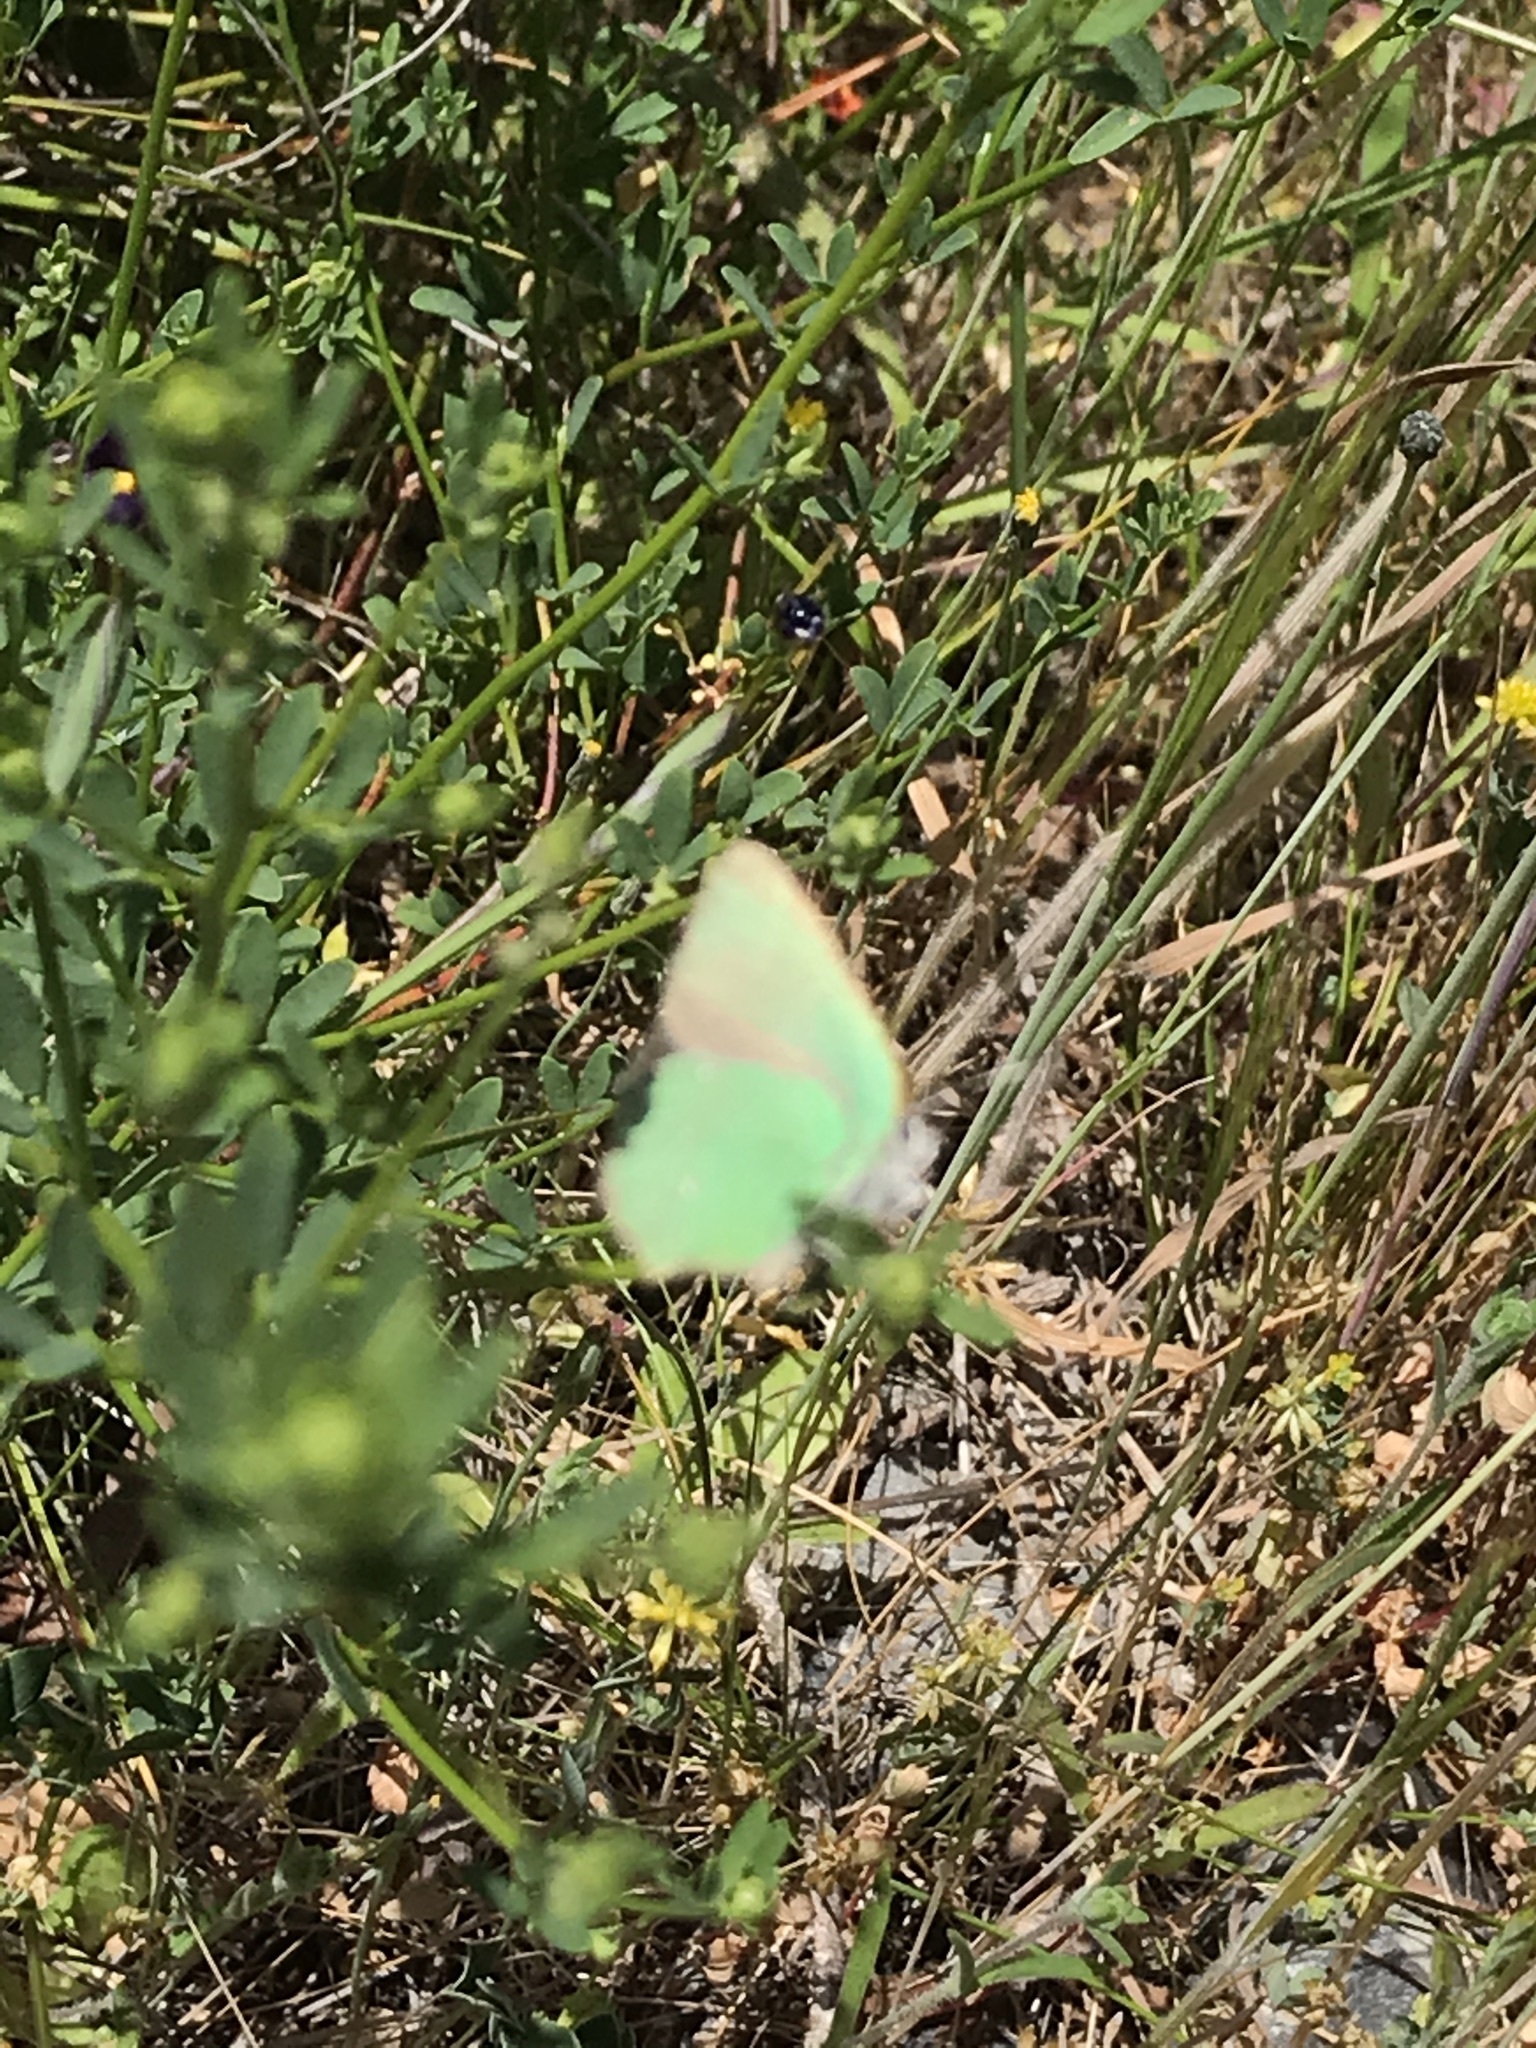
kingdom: Animalia
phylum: Arthropoda
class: Insecta
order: Lepidoptera
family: Lycaenidae
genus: Callophrys
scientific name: Callophrys dumetorum
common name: Bramble hairstreak
